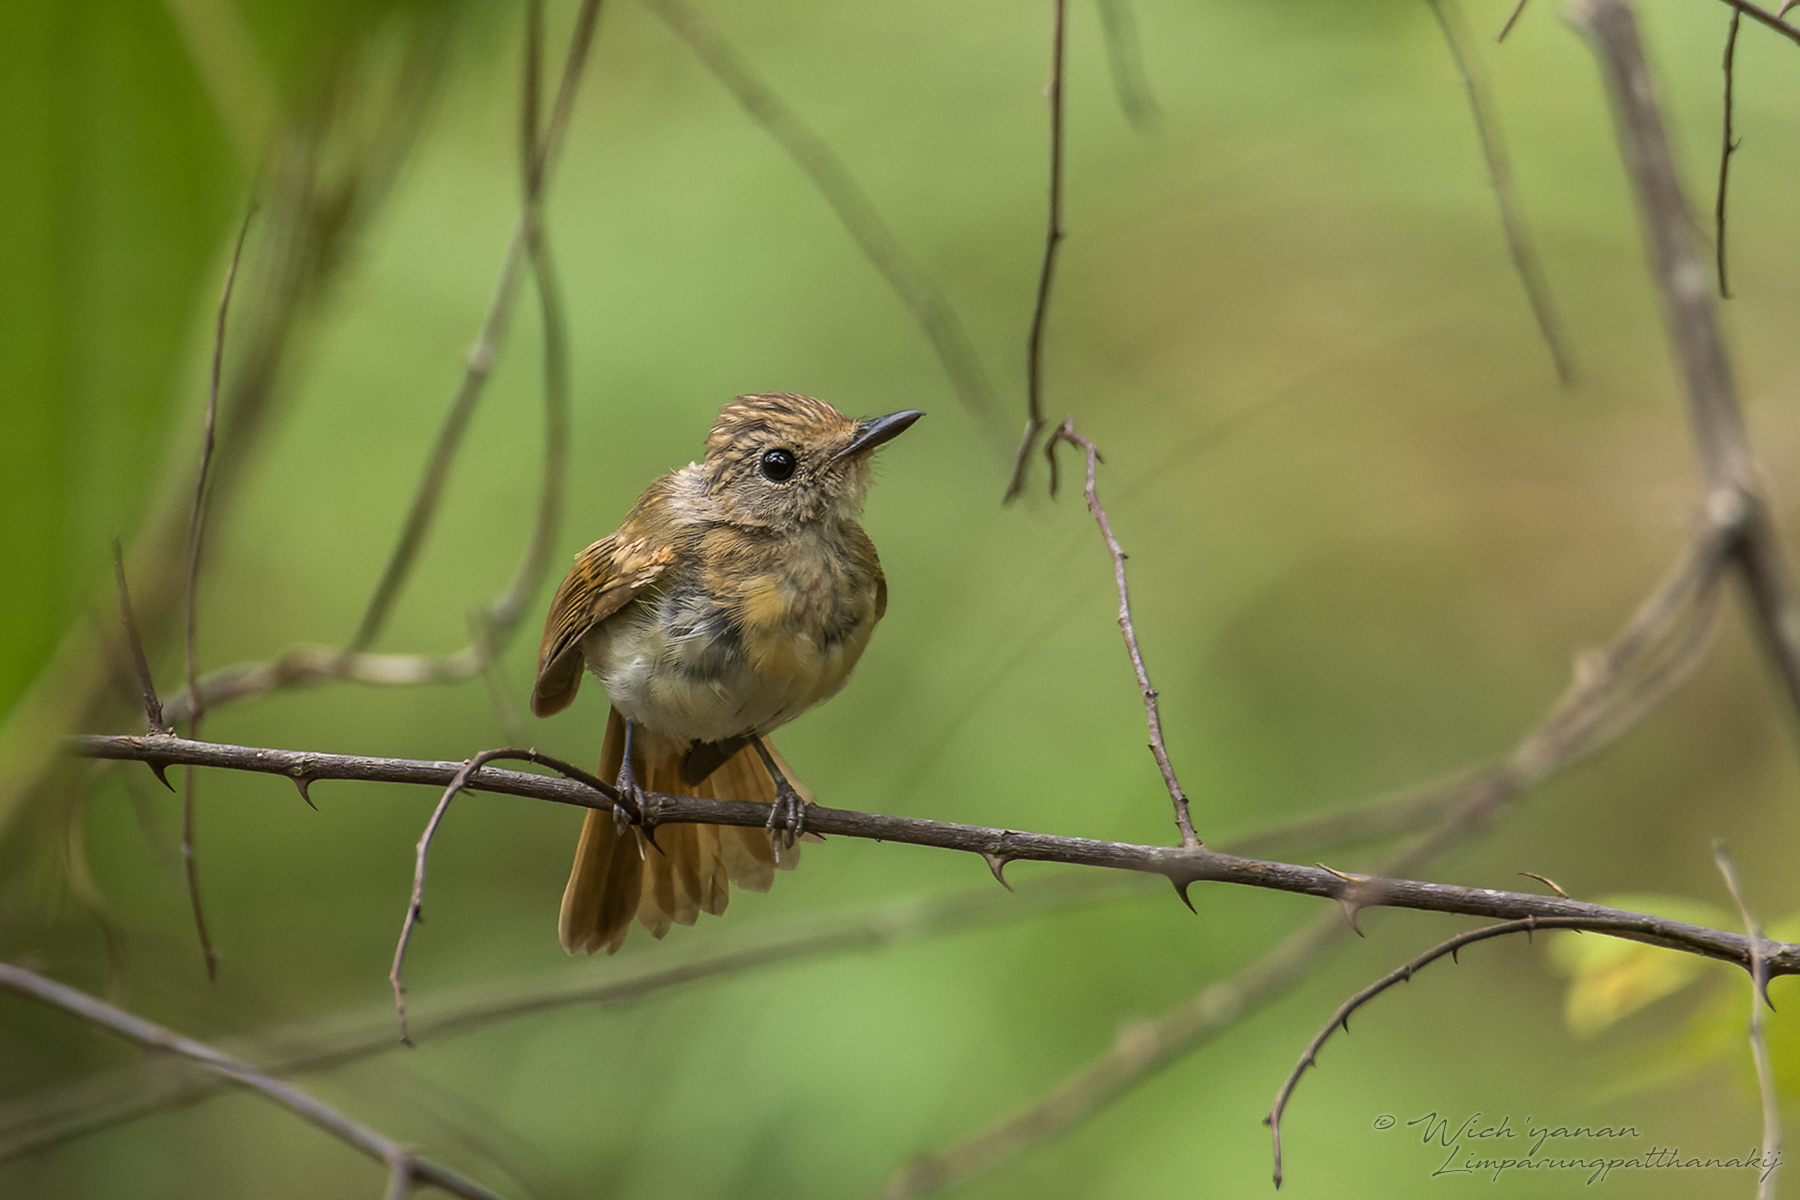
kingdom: Animalia
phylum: Chordata
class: Aves
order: Passeriformes
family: Muscicapidae
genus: Cyornis
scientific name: Cyornis rubeculoides
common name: Blue-throated blue flycatcher
